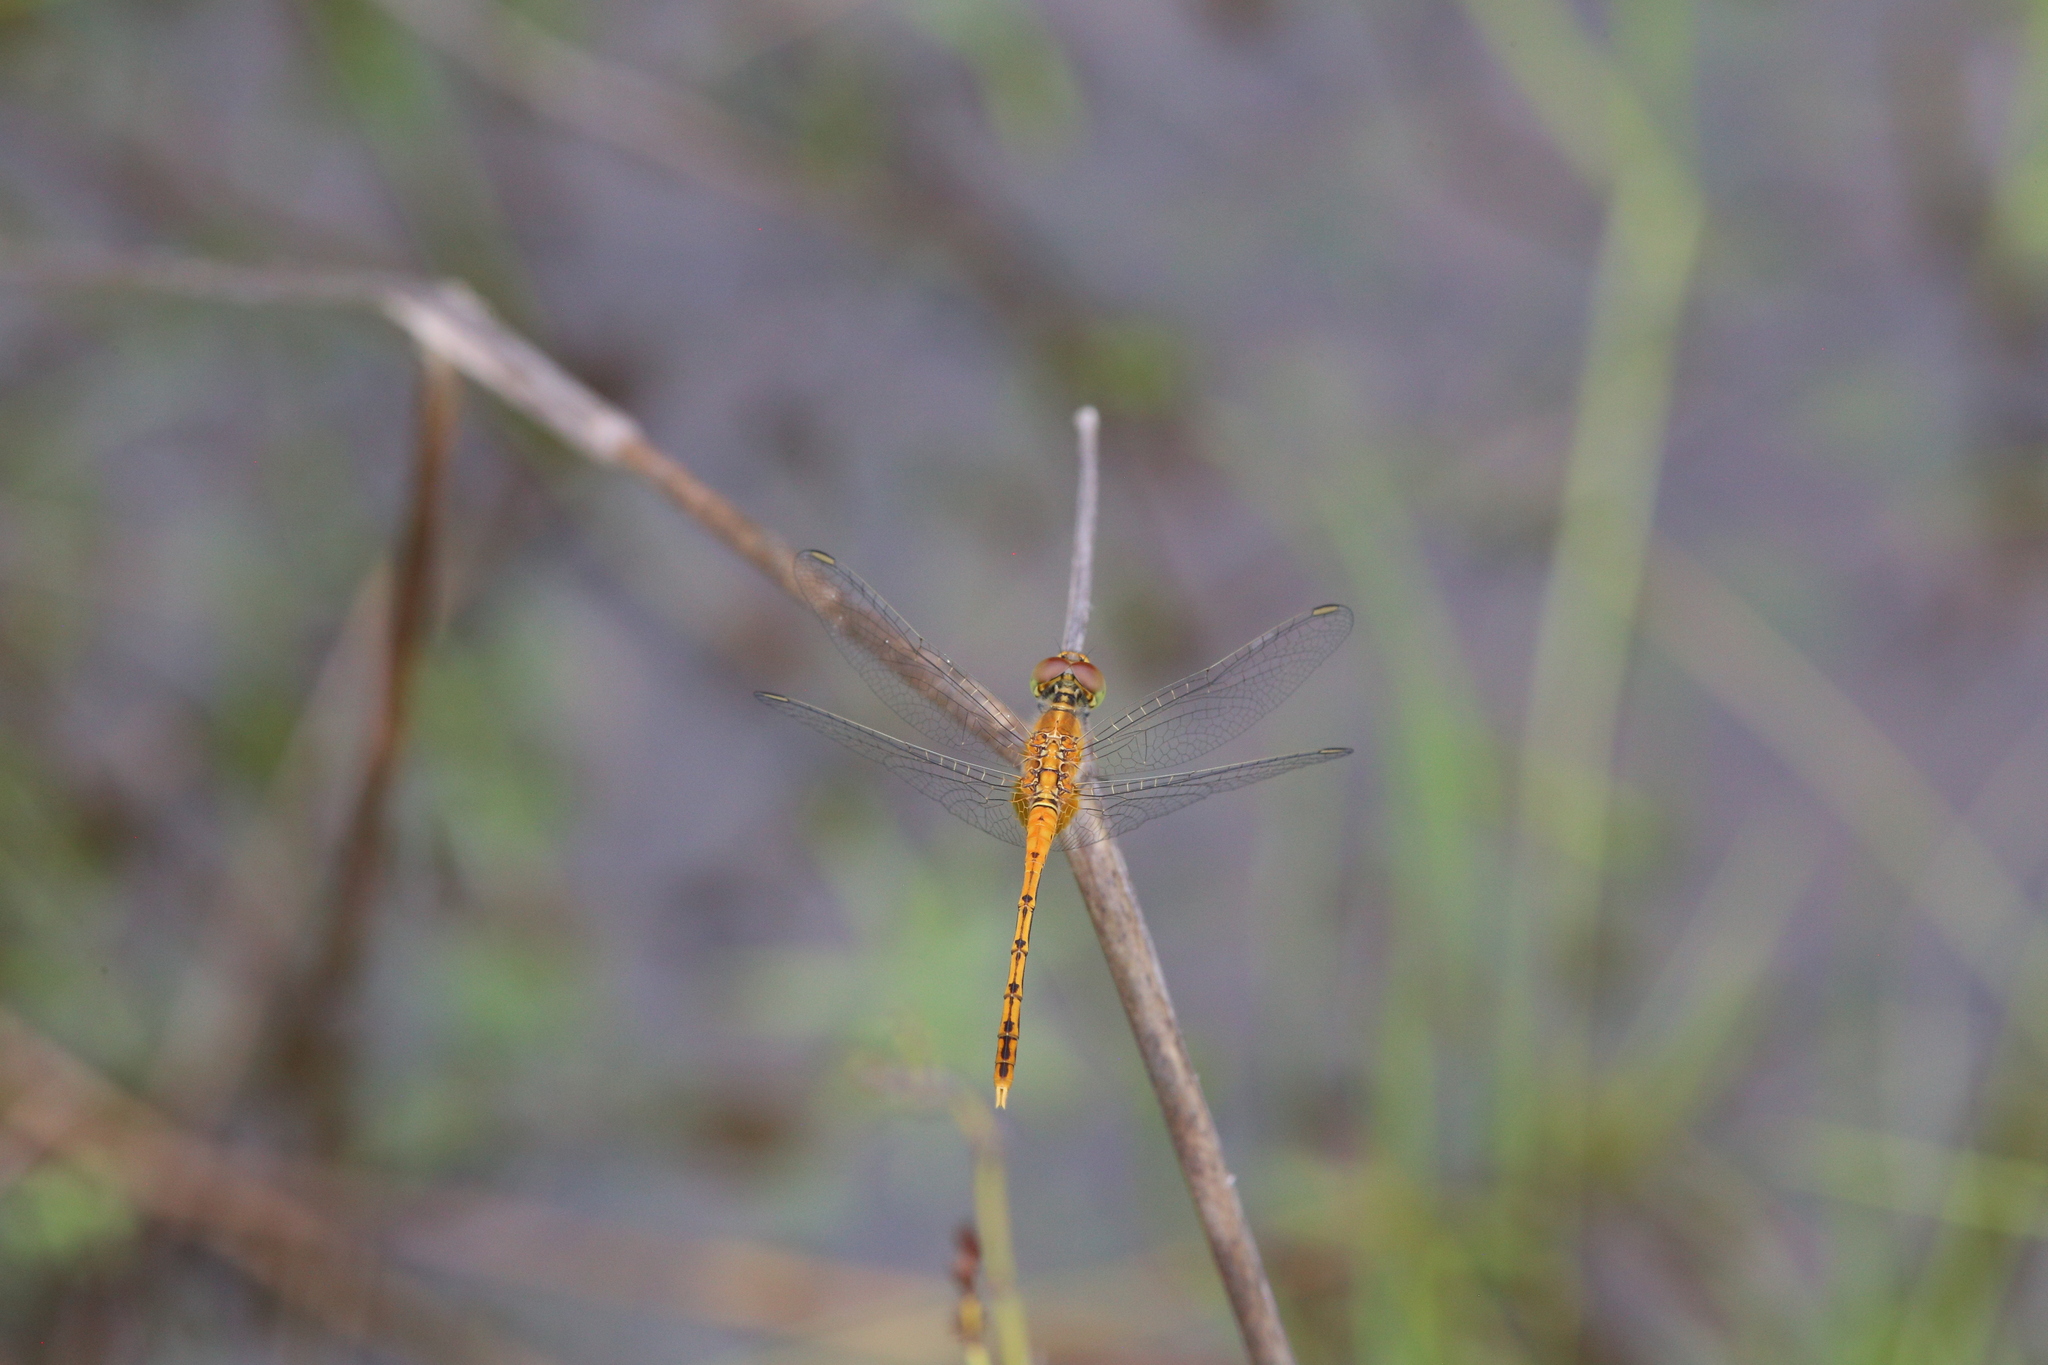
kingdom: Animalia
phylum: Arthropoda
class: Insecta
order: Odonata
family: Libellulidae
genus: Diplacodes
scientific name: Diplacodes bipunctata
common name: Red percher dragonfly
